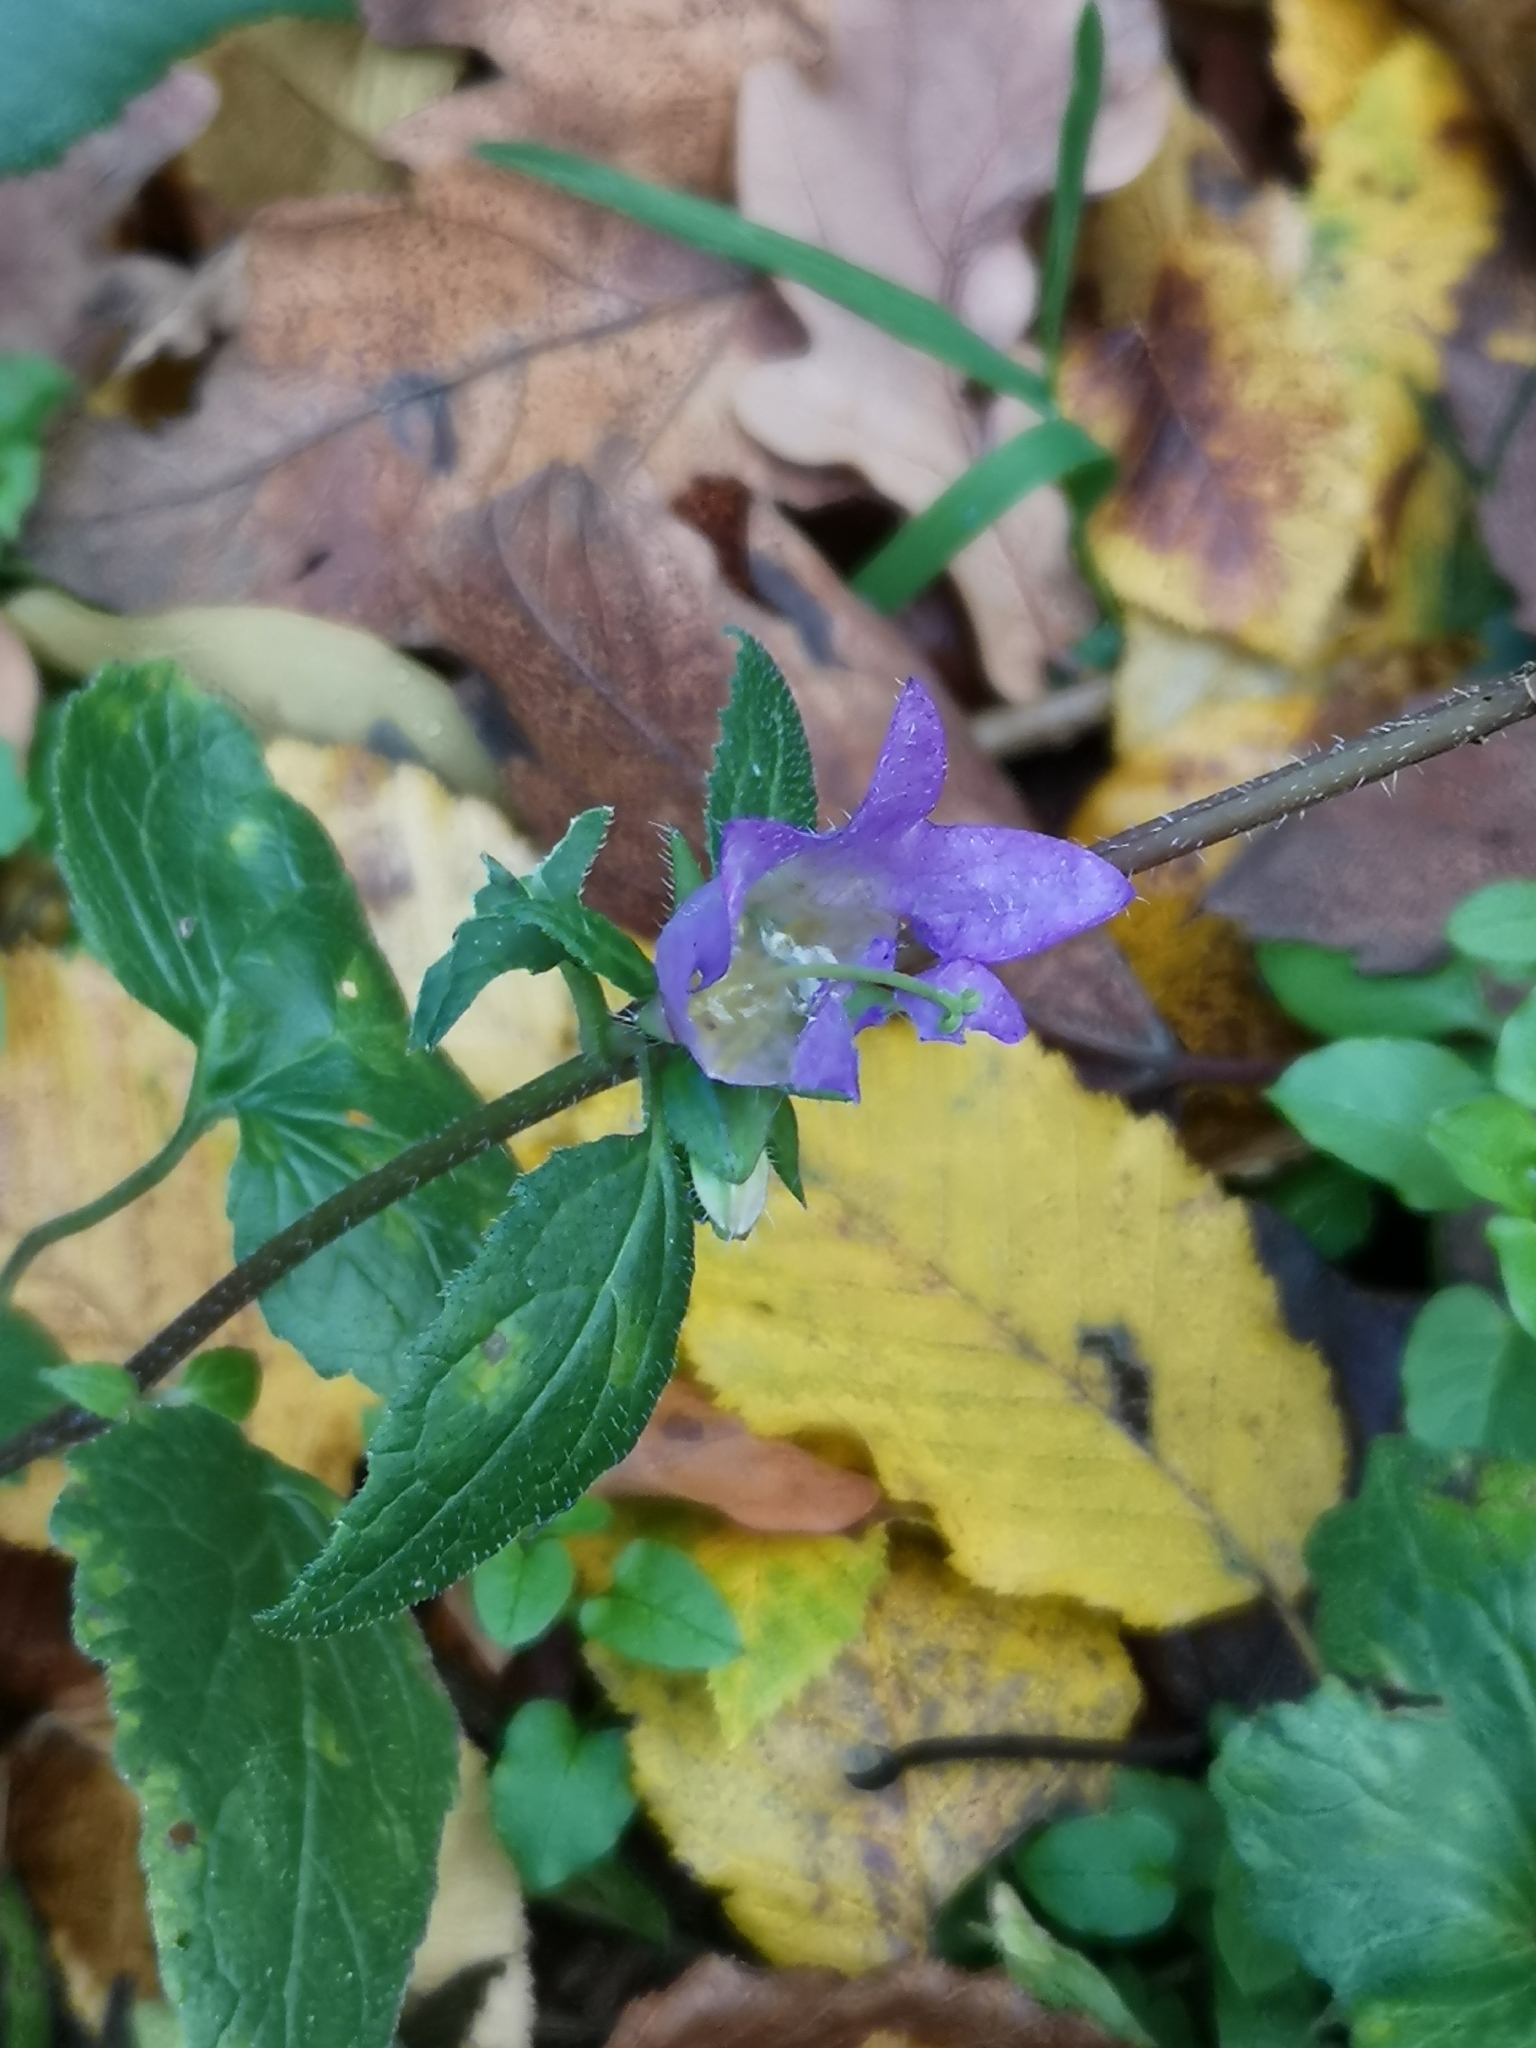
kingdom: Plantae
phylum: Tracheophyta
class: Magnoliopsida
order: Asterales
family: Campanulaceae
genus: Campanula
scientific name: Campanula trachelium
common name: Nettle-leaved bellflower
